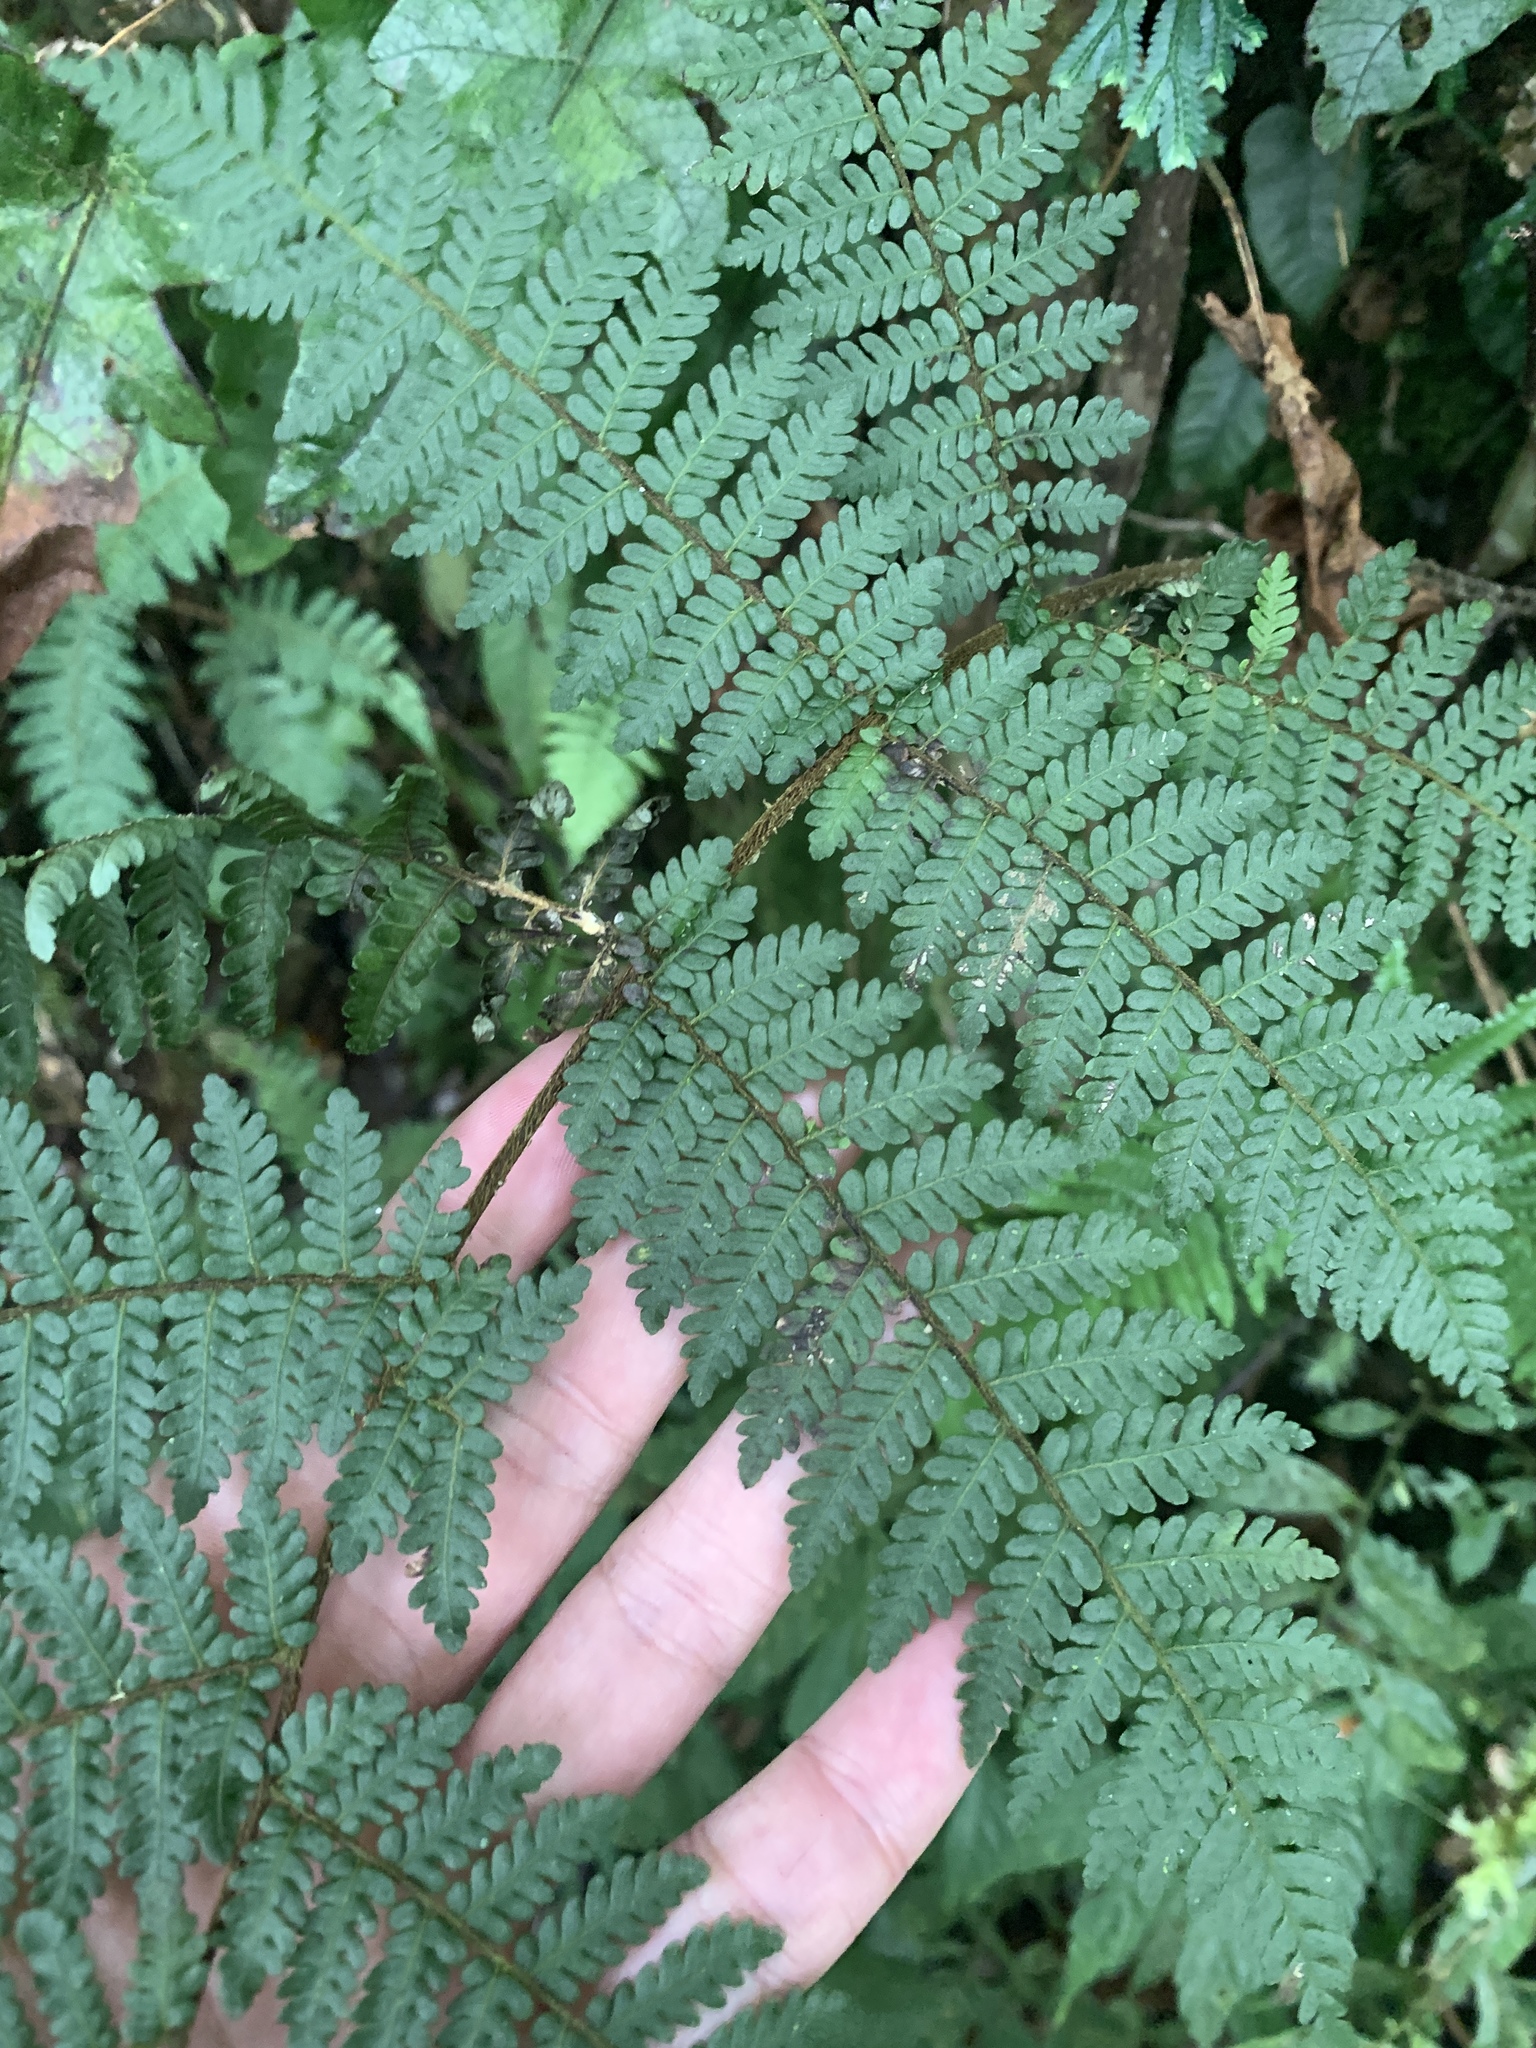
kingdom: Plantae
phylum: Tracheophyta
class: Polypodiopsida
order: Cyatheales
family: Cyatheaceae
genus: Alsophila
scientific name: Alsophila loheri
